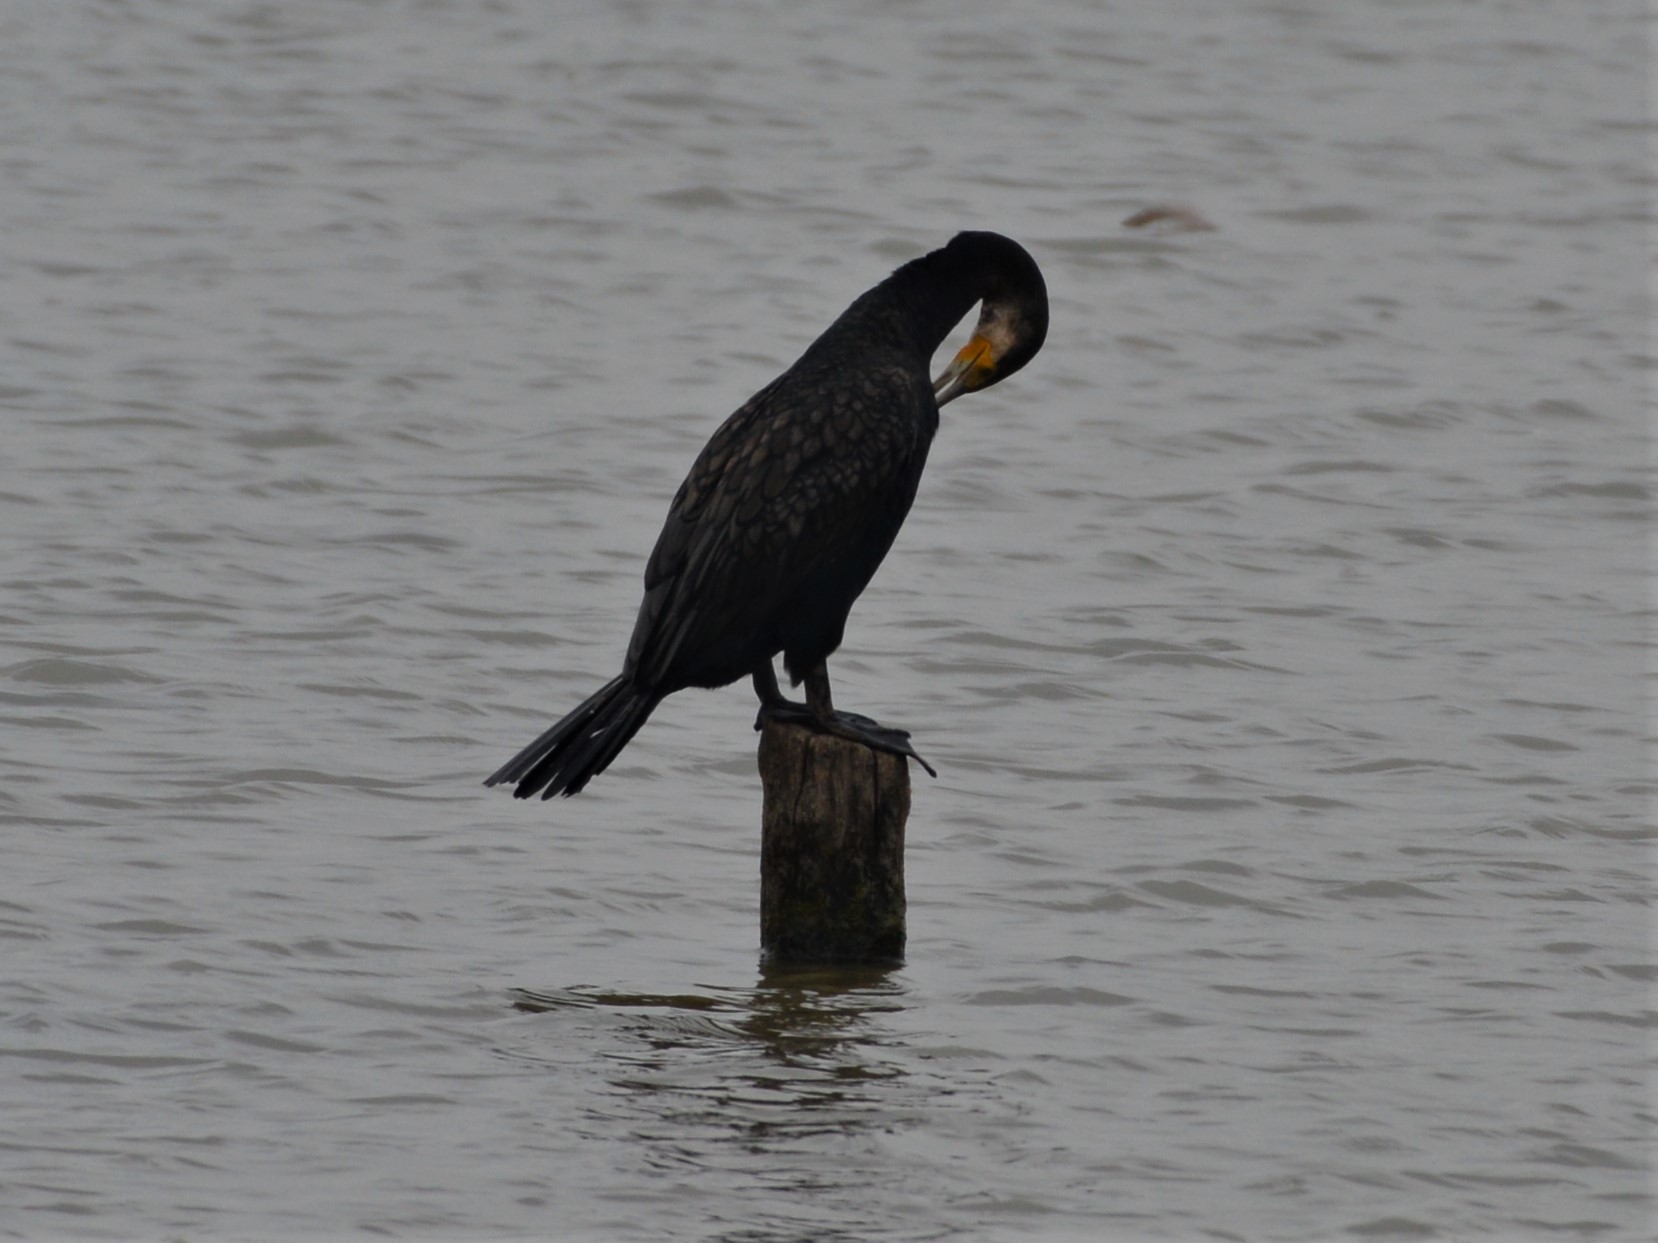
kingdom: Animalia
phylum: Chordata
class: Aves
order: Suliformes
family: Phalacrocoracidae
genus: Phalacrocorax
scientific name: Phalacrocorax carbo
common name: Great cormorant
